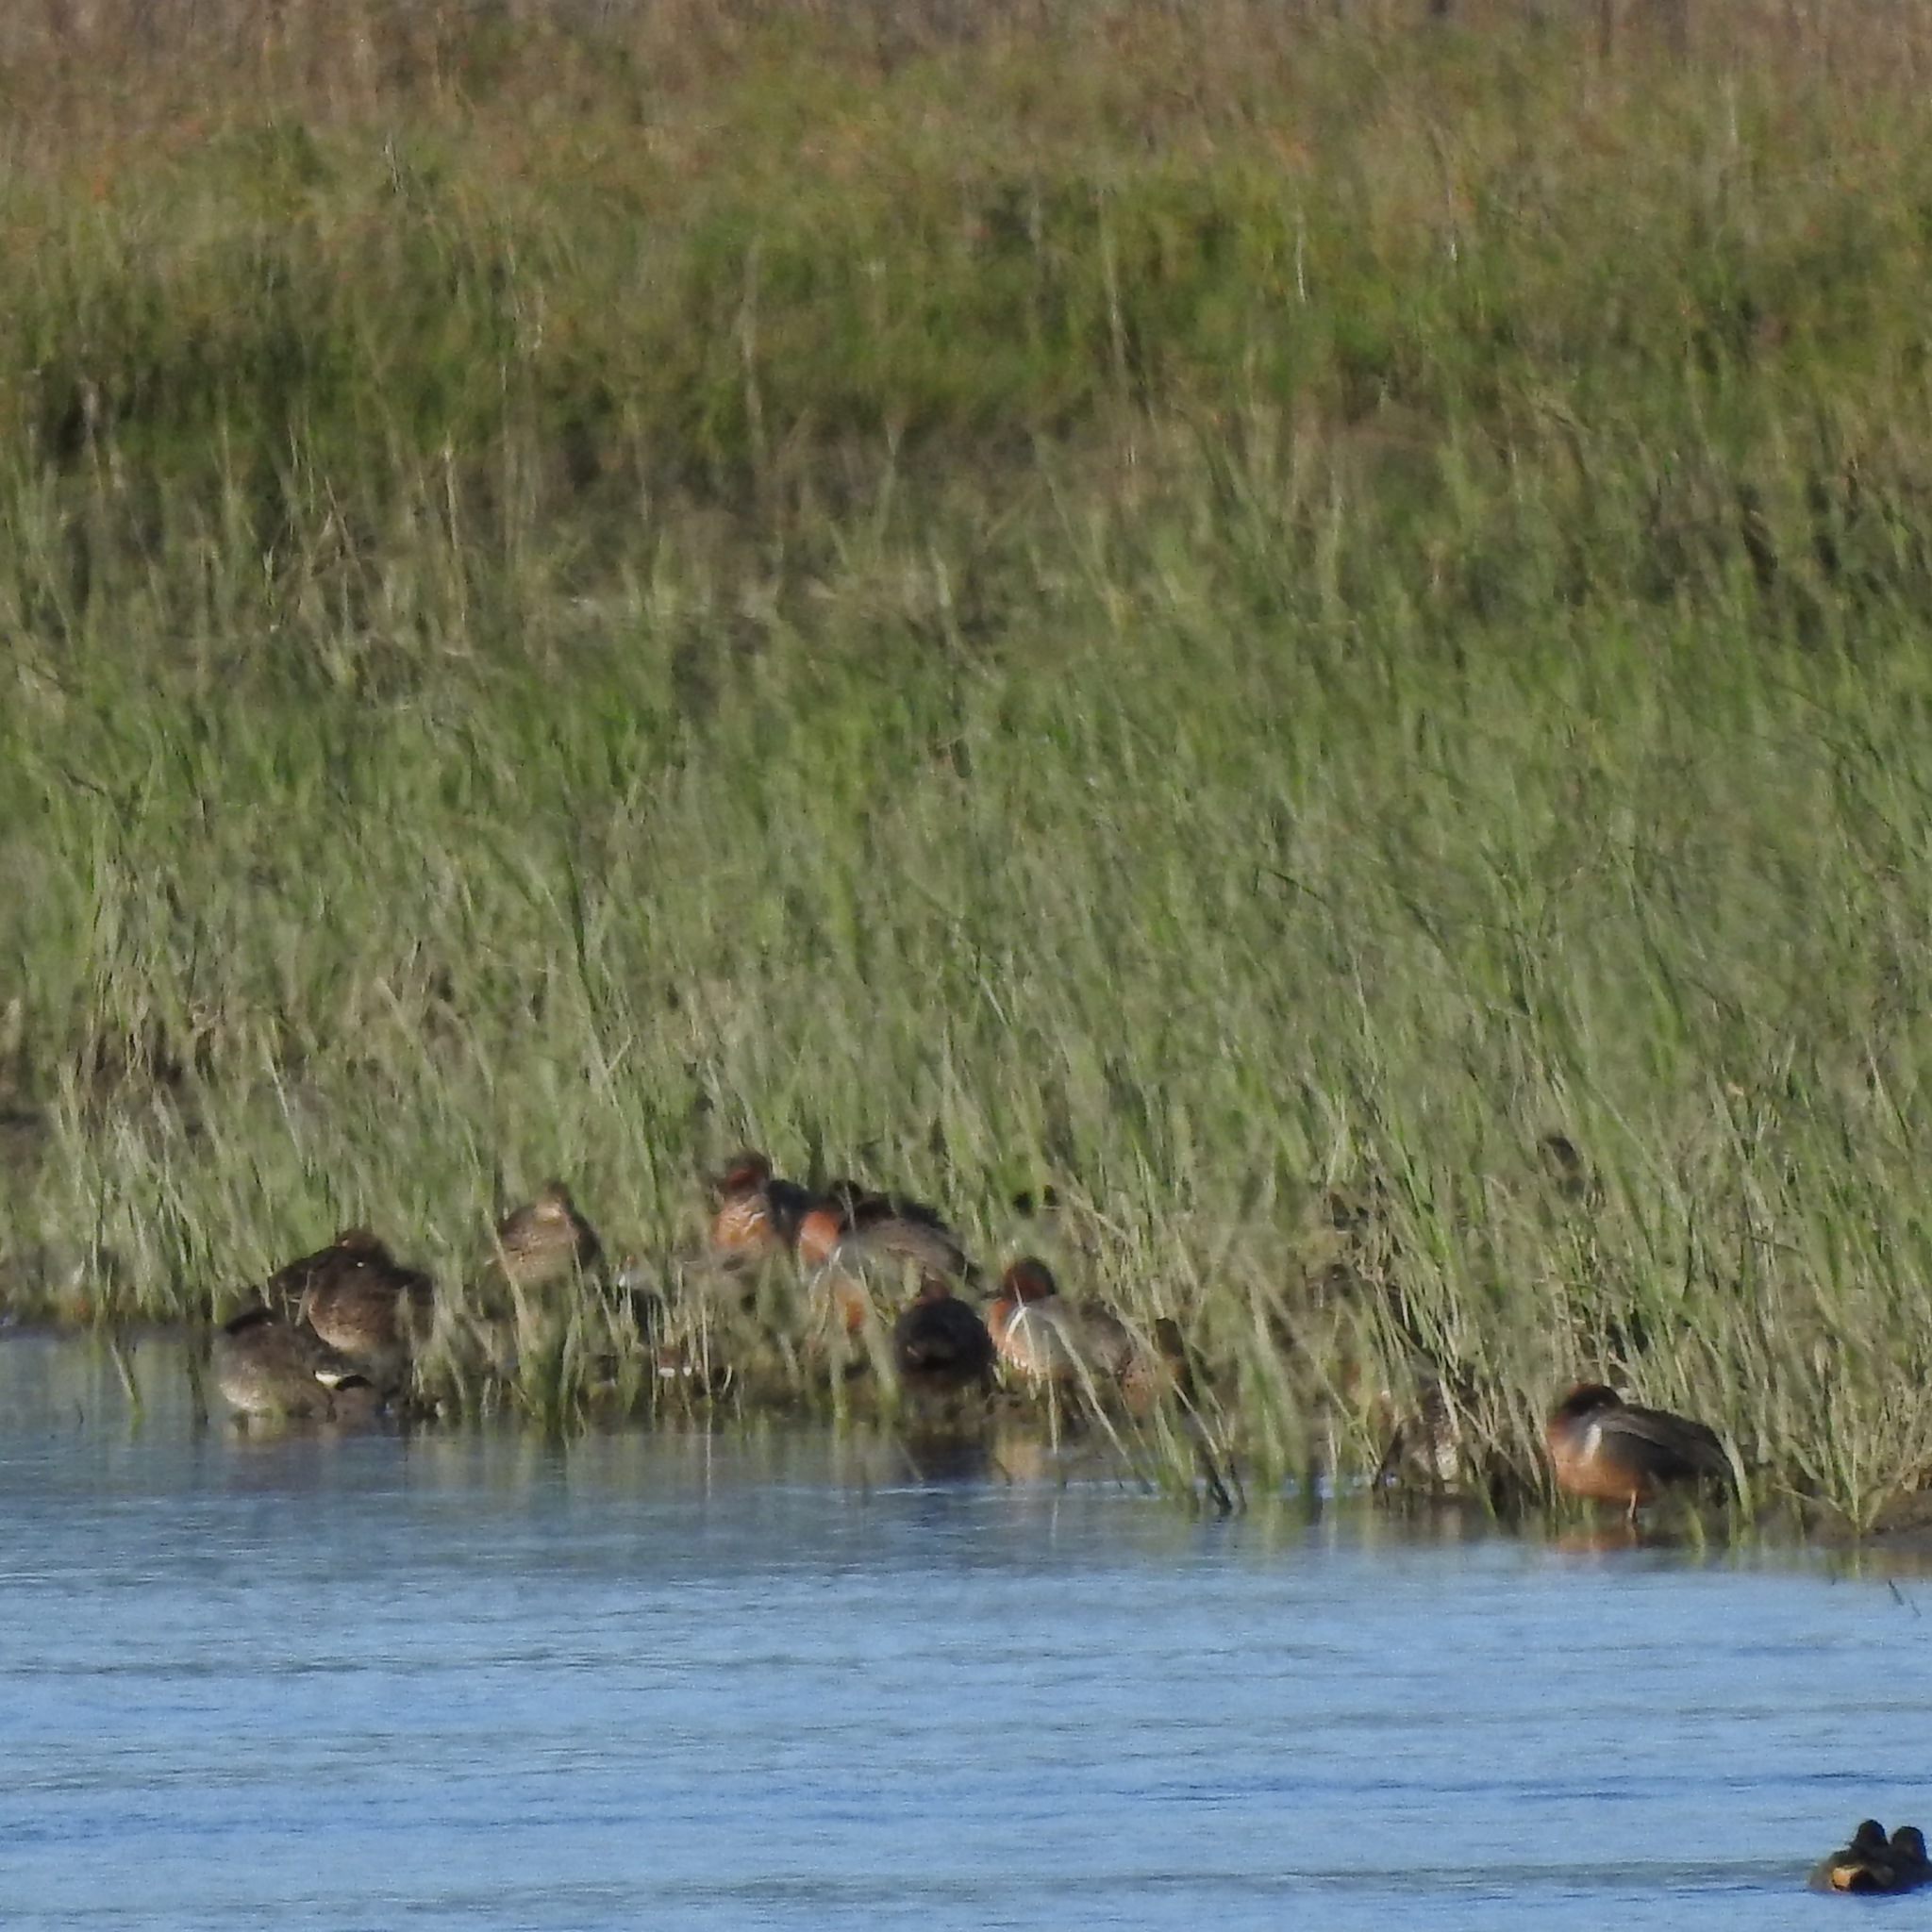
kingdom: Animalia
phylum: Chordata
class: Aves
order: Anseriformes
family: Anatidae
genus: Anas
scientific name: Anas crecca
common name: Eurasian teal
